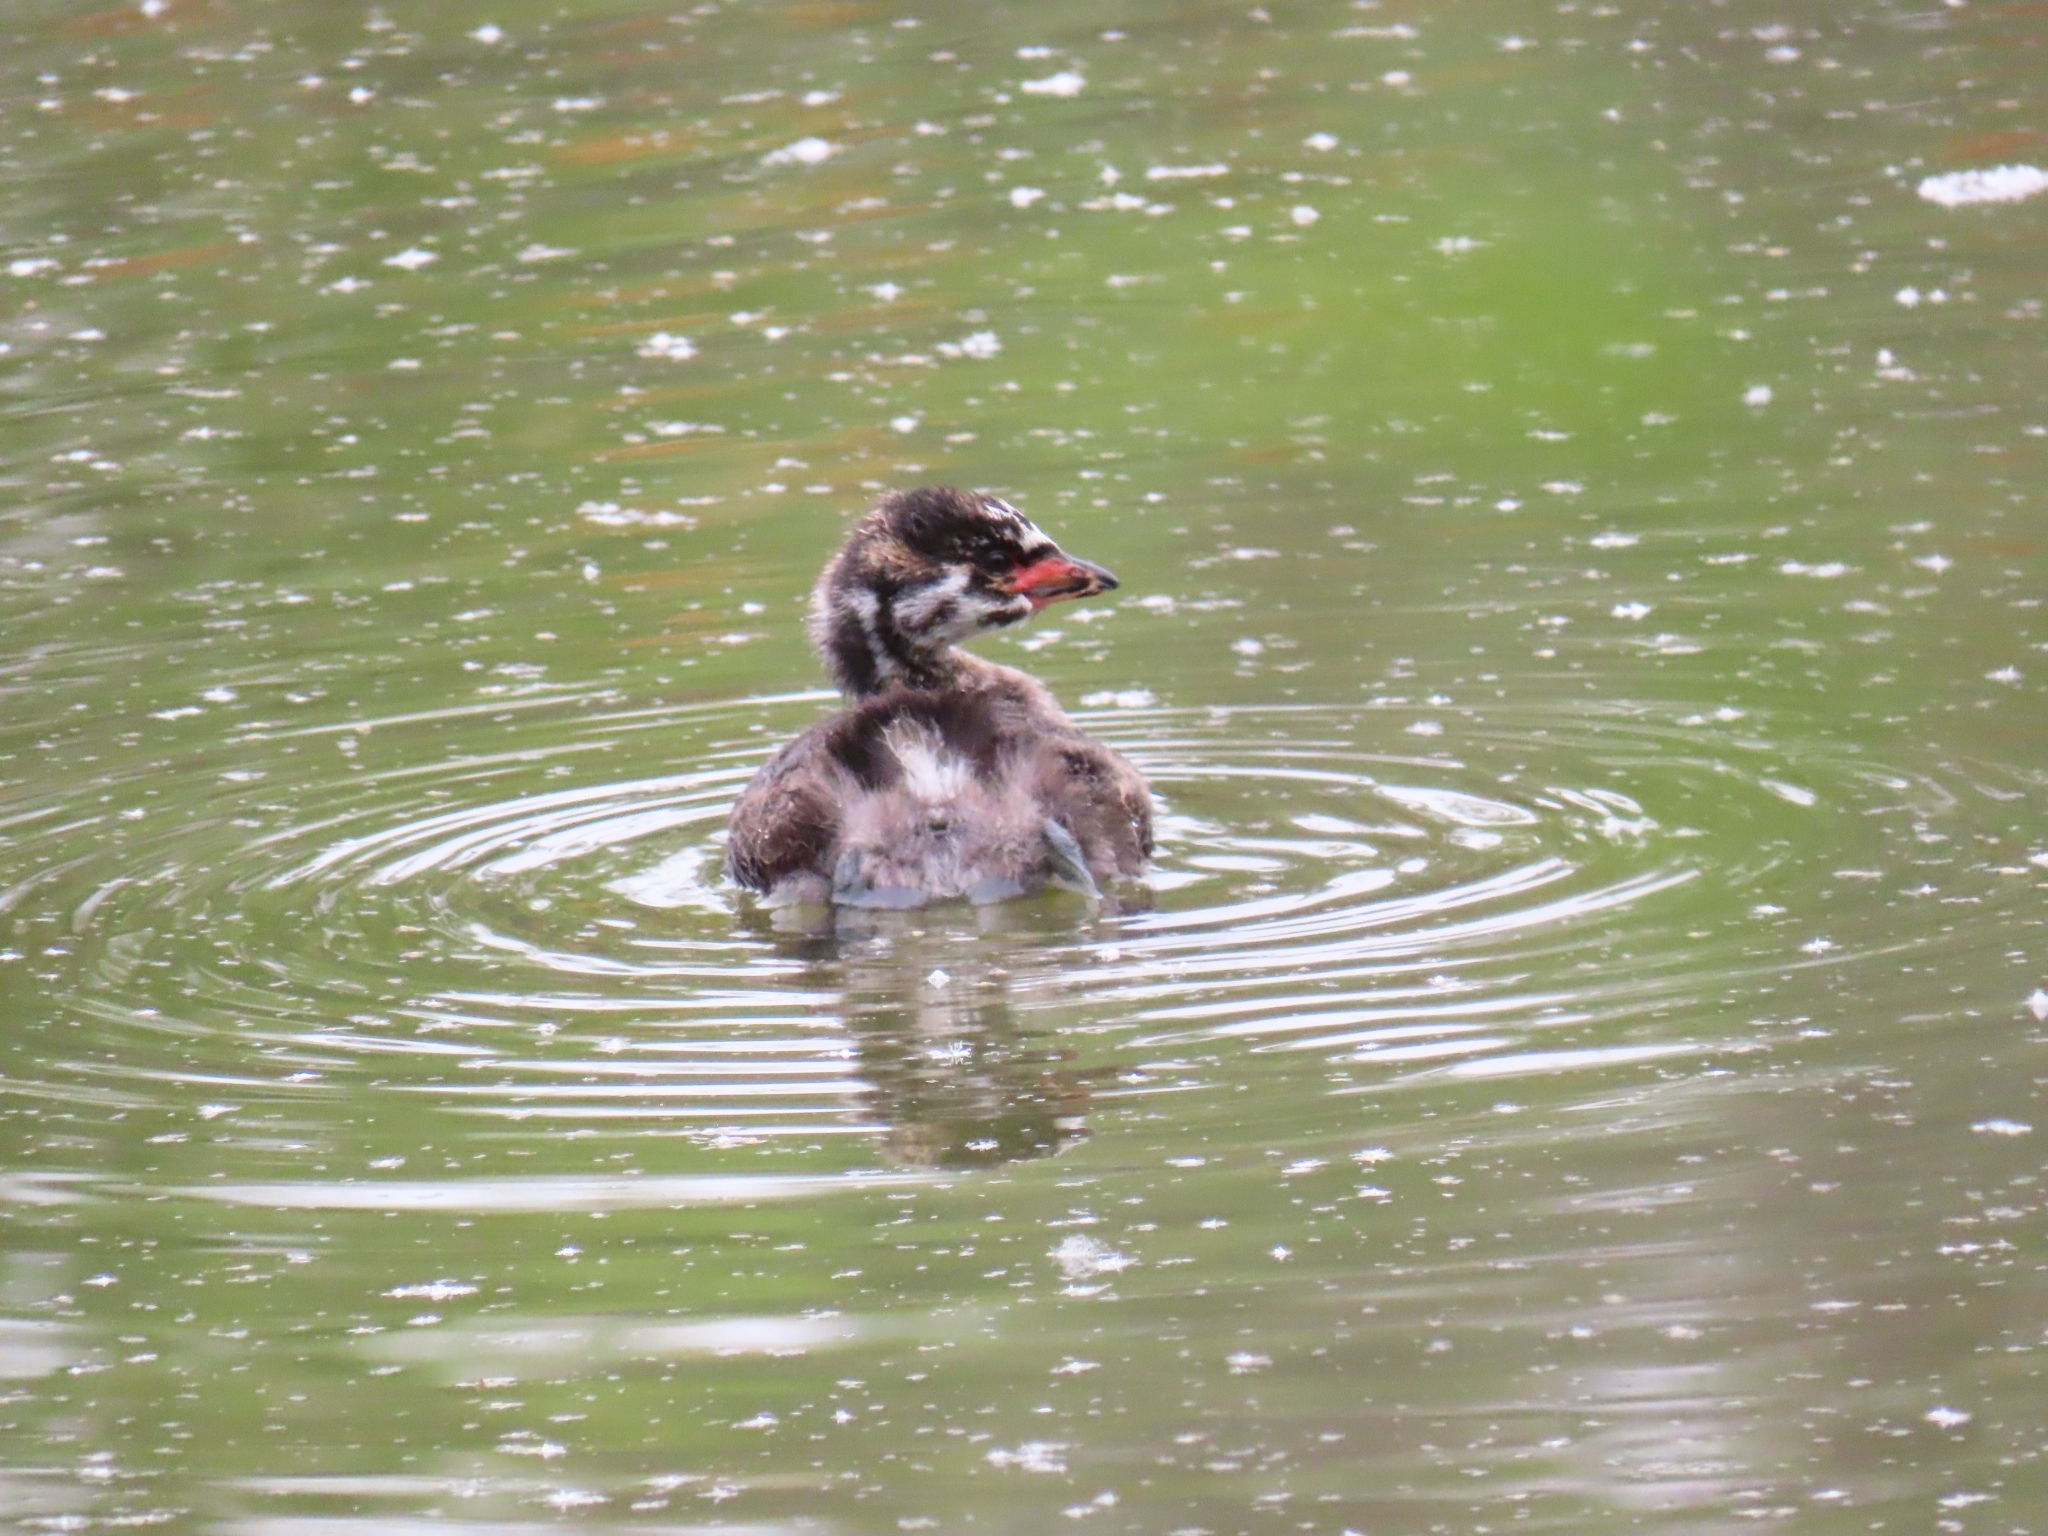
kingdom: Animalia
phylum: Chordata
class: Aves
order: Podicipediformes
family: Podicipedidae
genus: Podilymbus
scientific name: Podilymbus podiceps
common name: Pied-billed grebe
